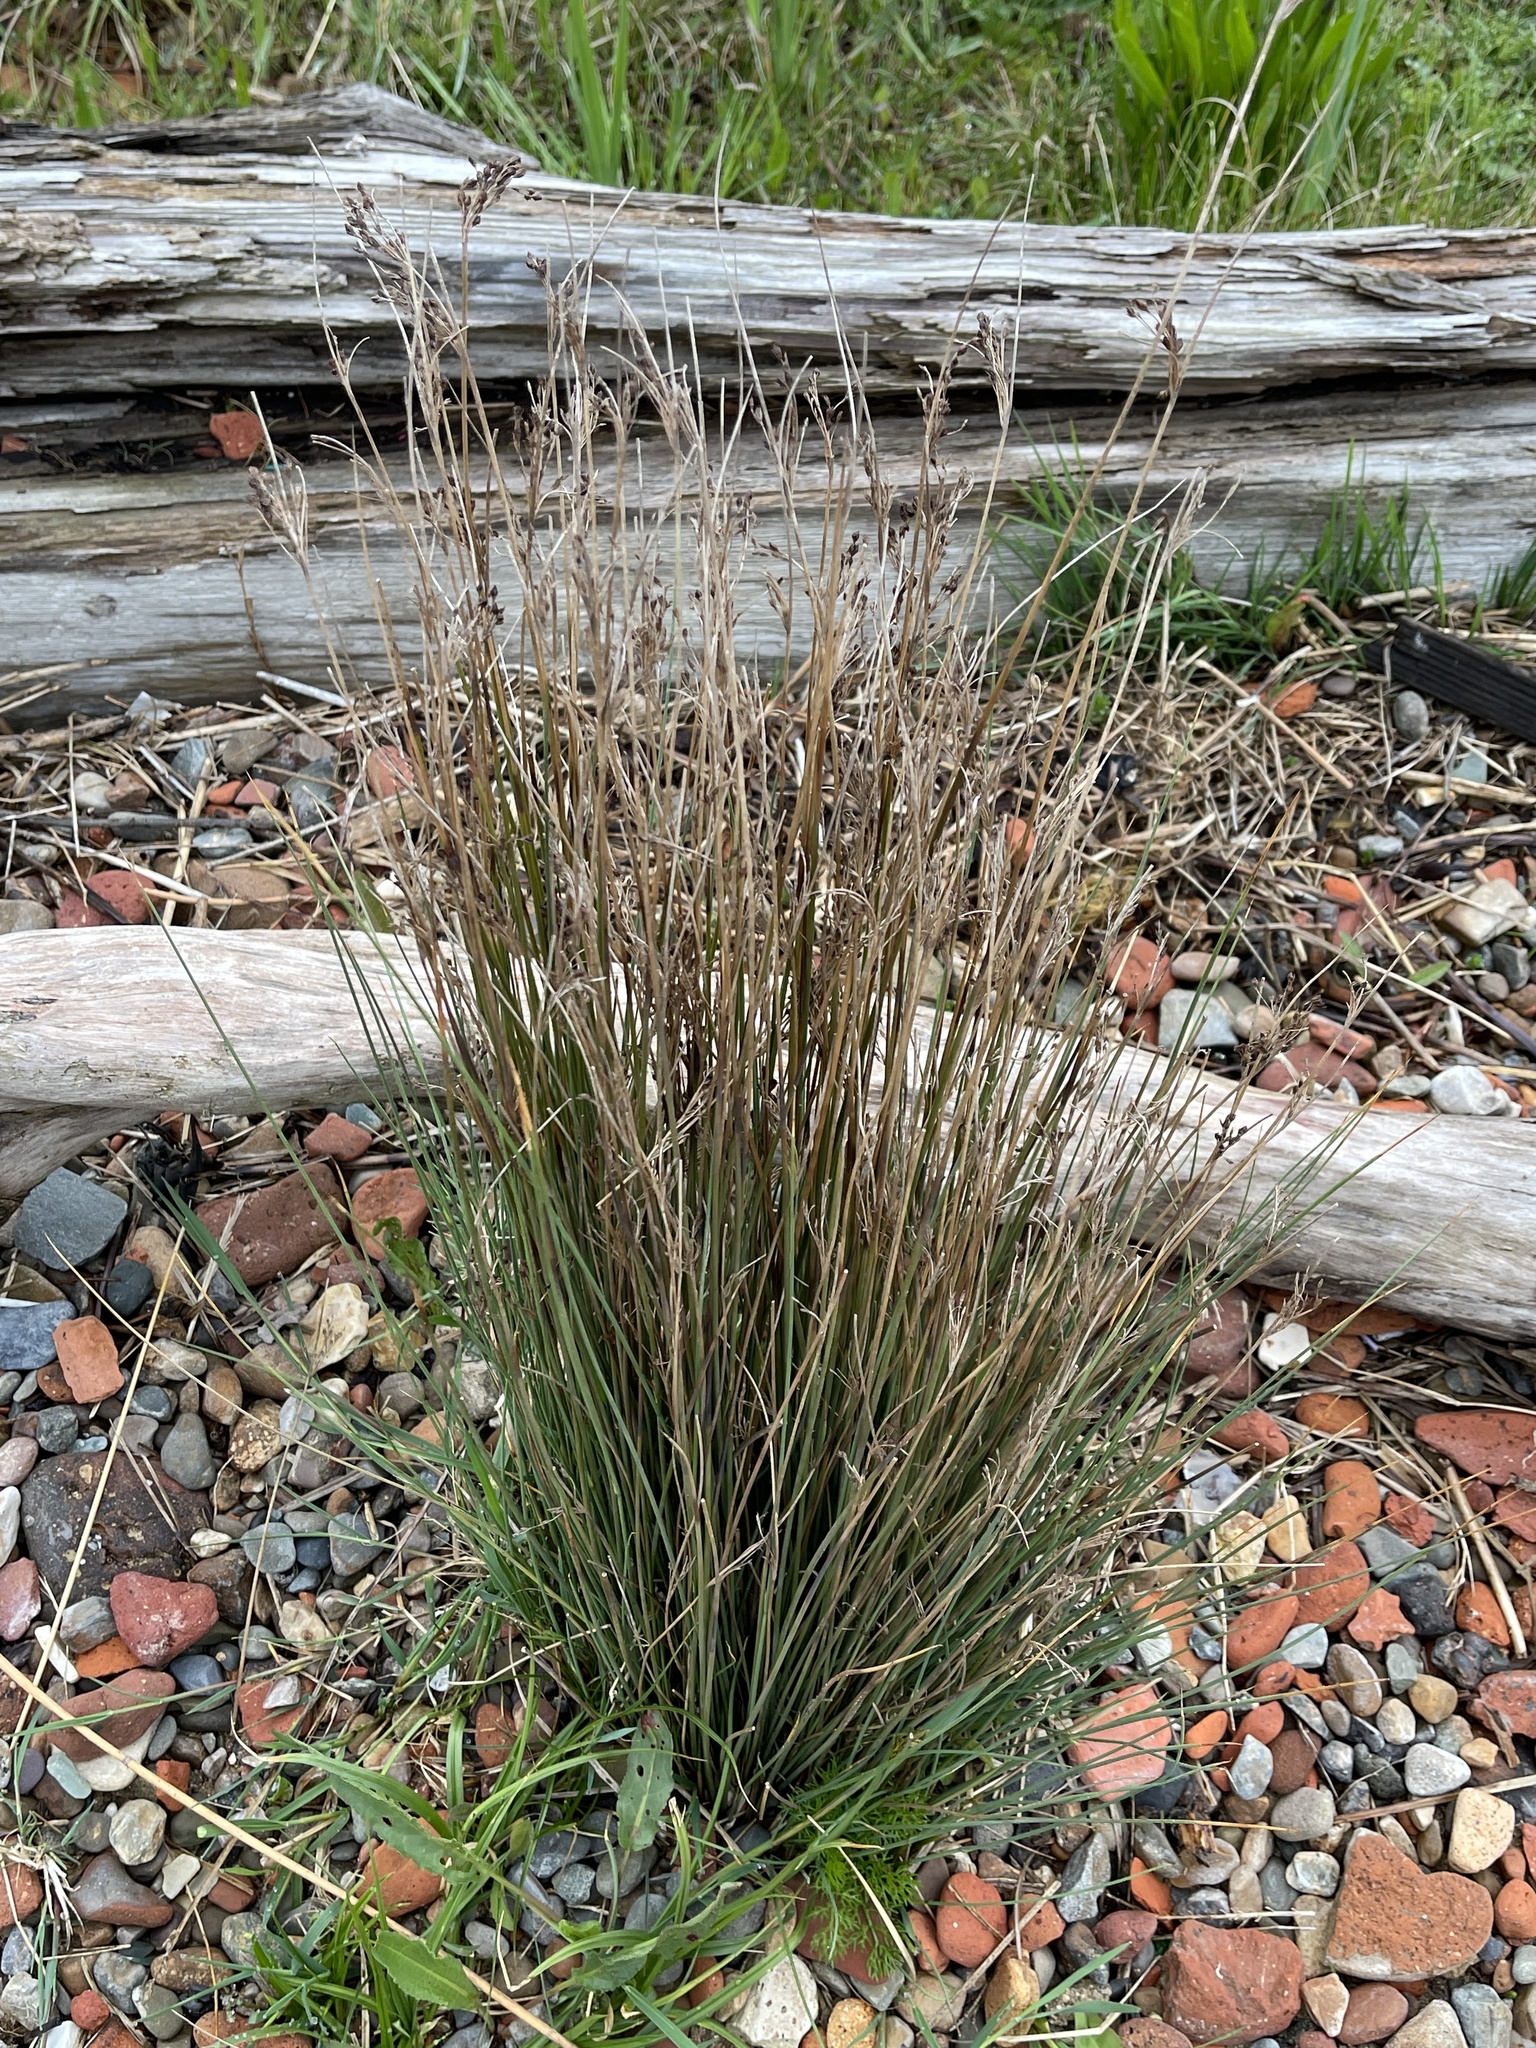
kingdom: Plantae
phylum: Tracheophyta
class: Liliopsida
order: Poales
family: Juncaceae
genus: Juncus
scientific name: Juncus inflexus
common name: Hard rush
